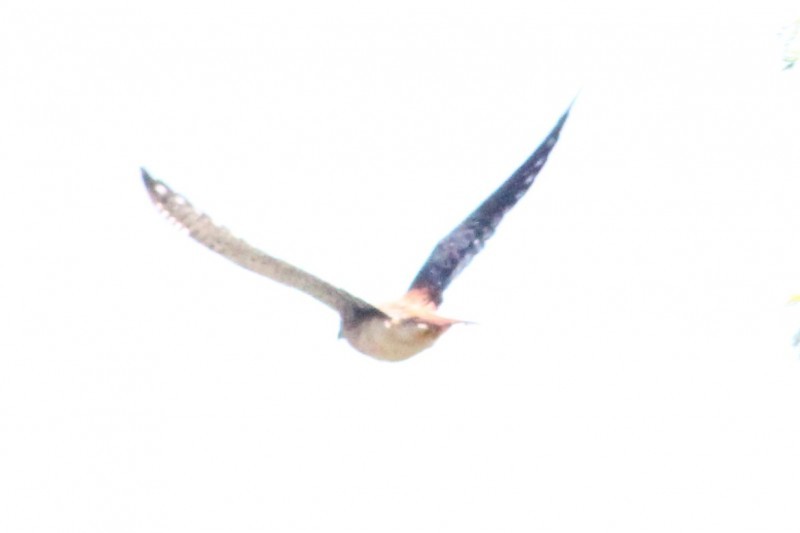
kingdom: Animalia
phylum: Chordata
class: Aves
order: Falconiformes
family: Falconidae
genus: Falco
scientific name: Falco sparverius
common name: American kestrel
